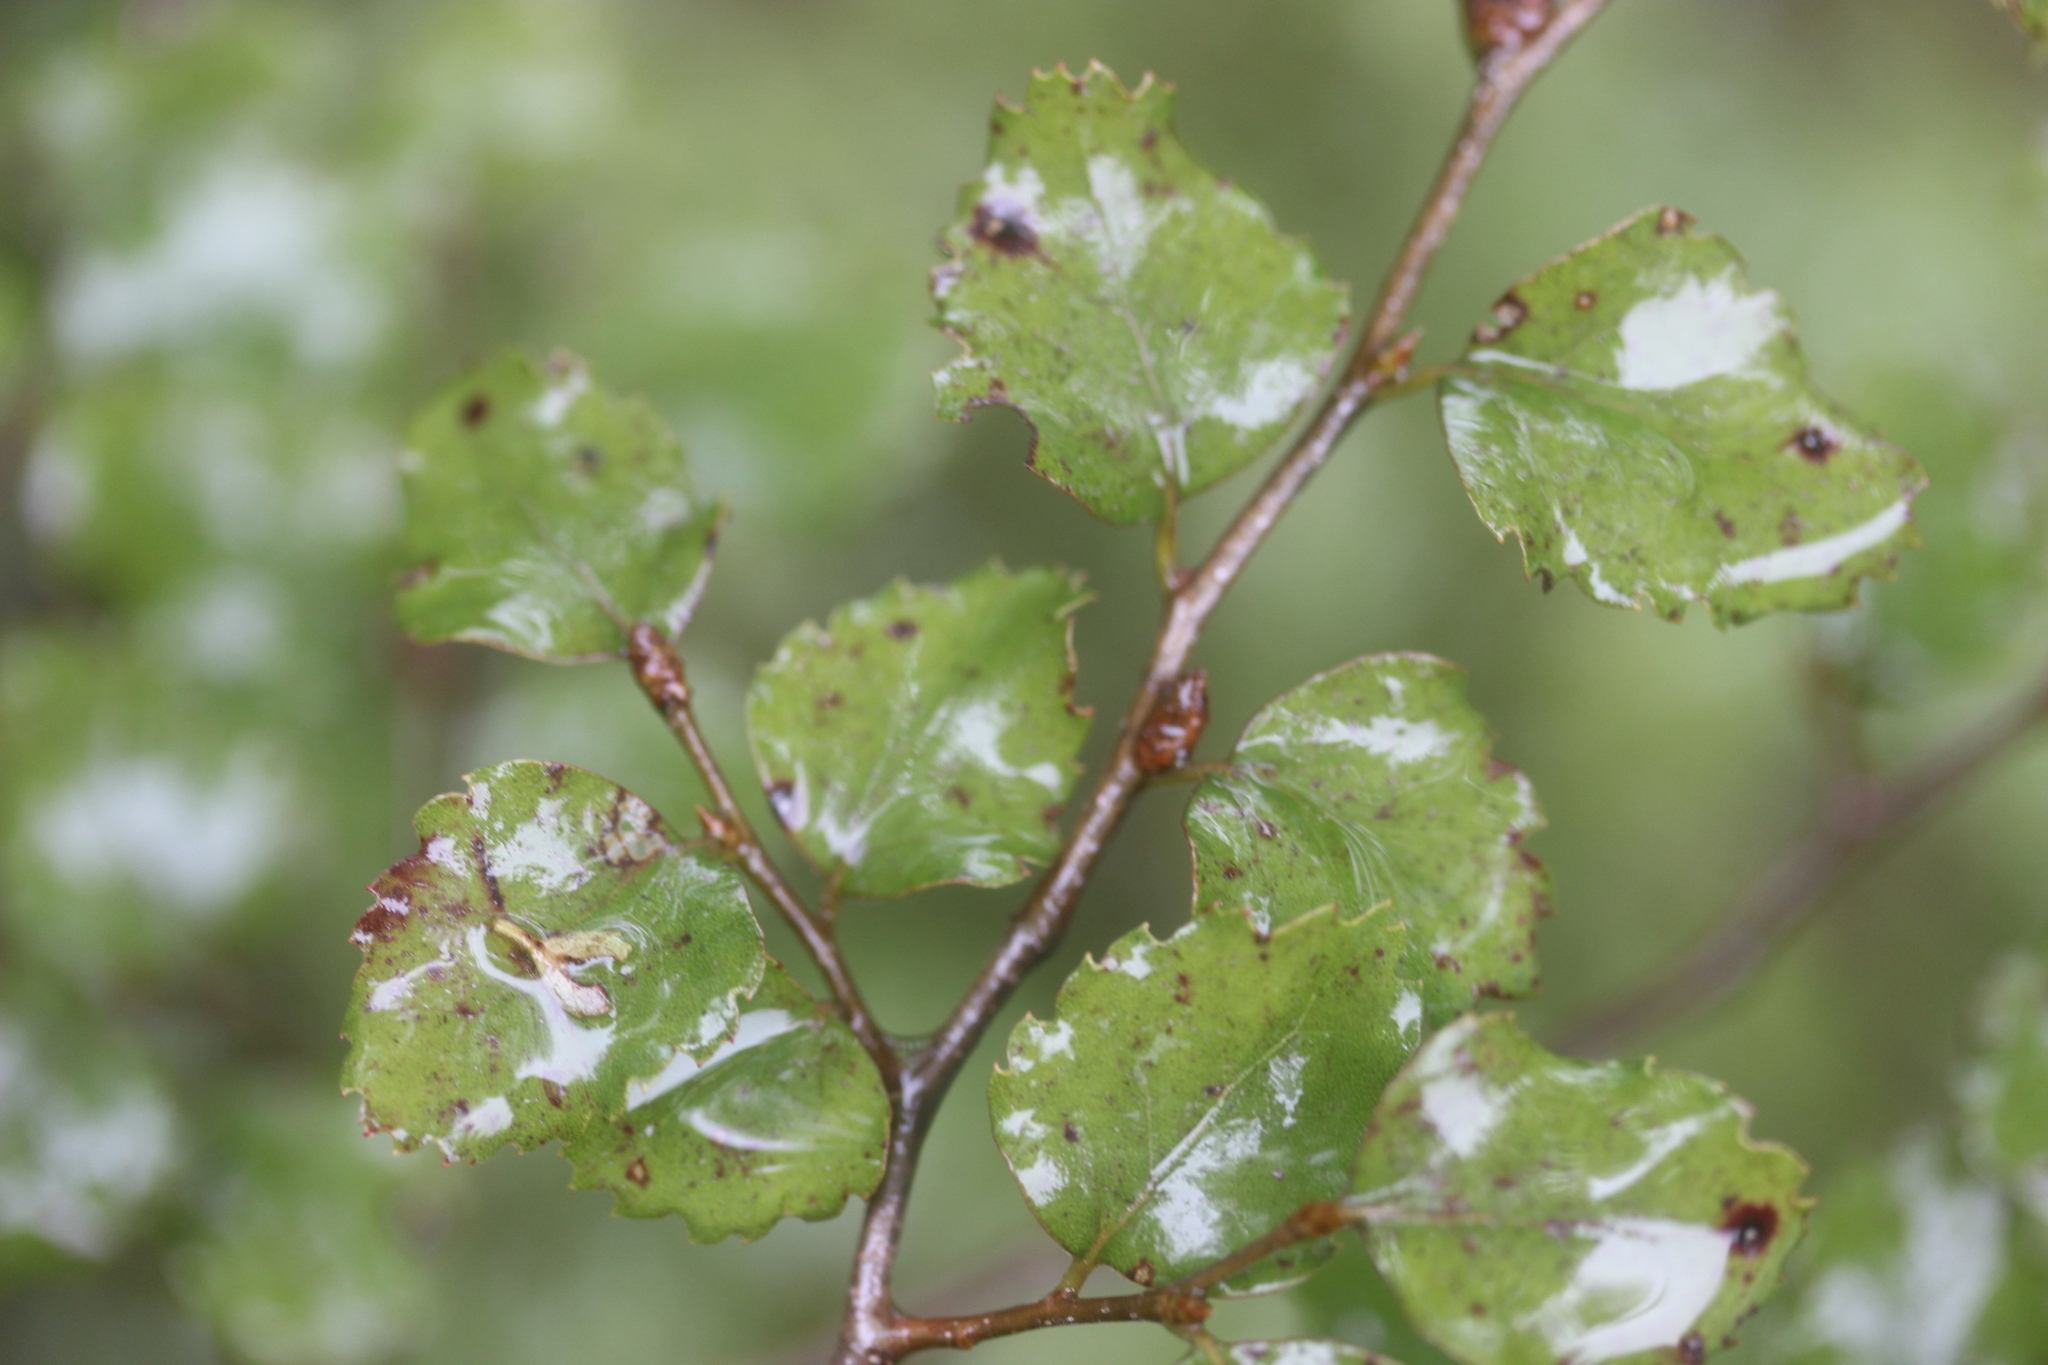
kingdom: Plantae
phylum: Tracheophyta
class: Magnoliopsida
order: Fagales
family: Nothofagaceae
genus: Nothofagus
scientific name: Nothofagus fusca
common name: Red beech
